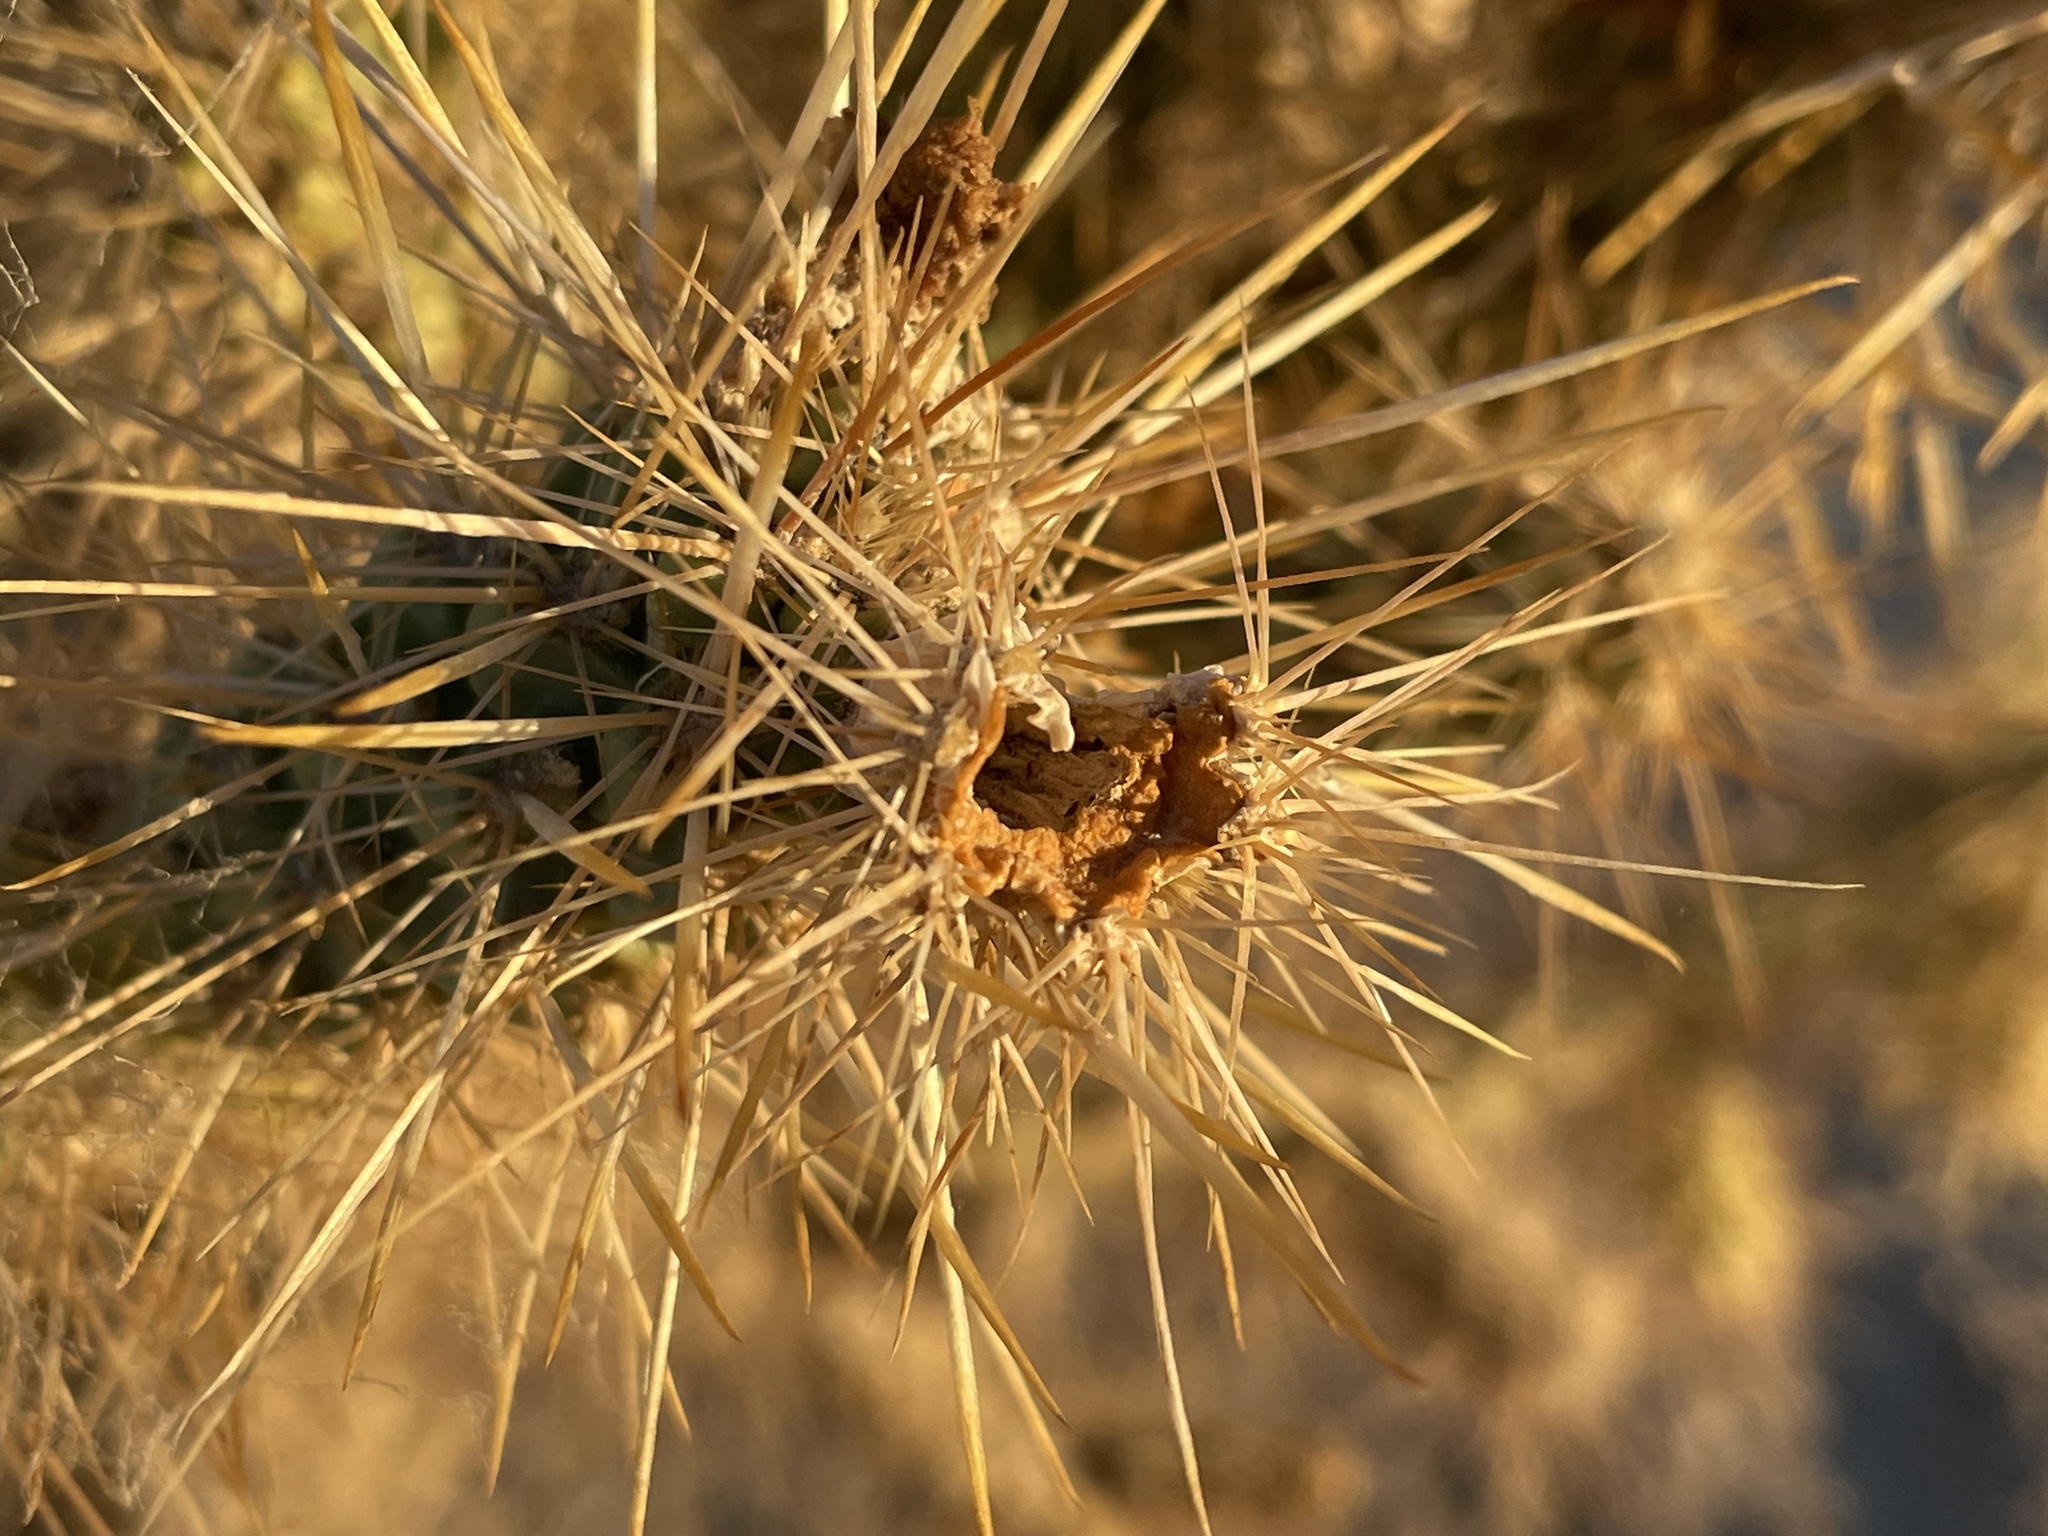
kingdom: Plantae
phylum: Tracheophyta
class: Magnoliopsida
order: Caryophyllales
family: Cactaceae
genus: Cylindropuntia
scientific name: Cylindropuntia echinocarpa
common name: Ground cholla
